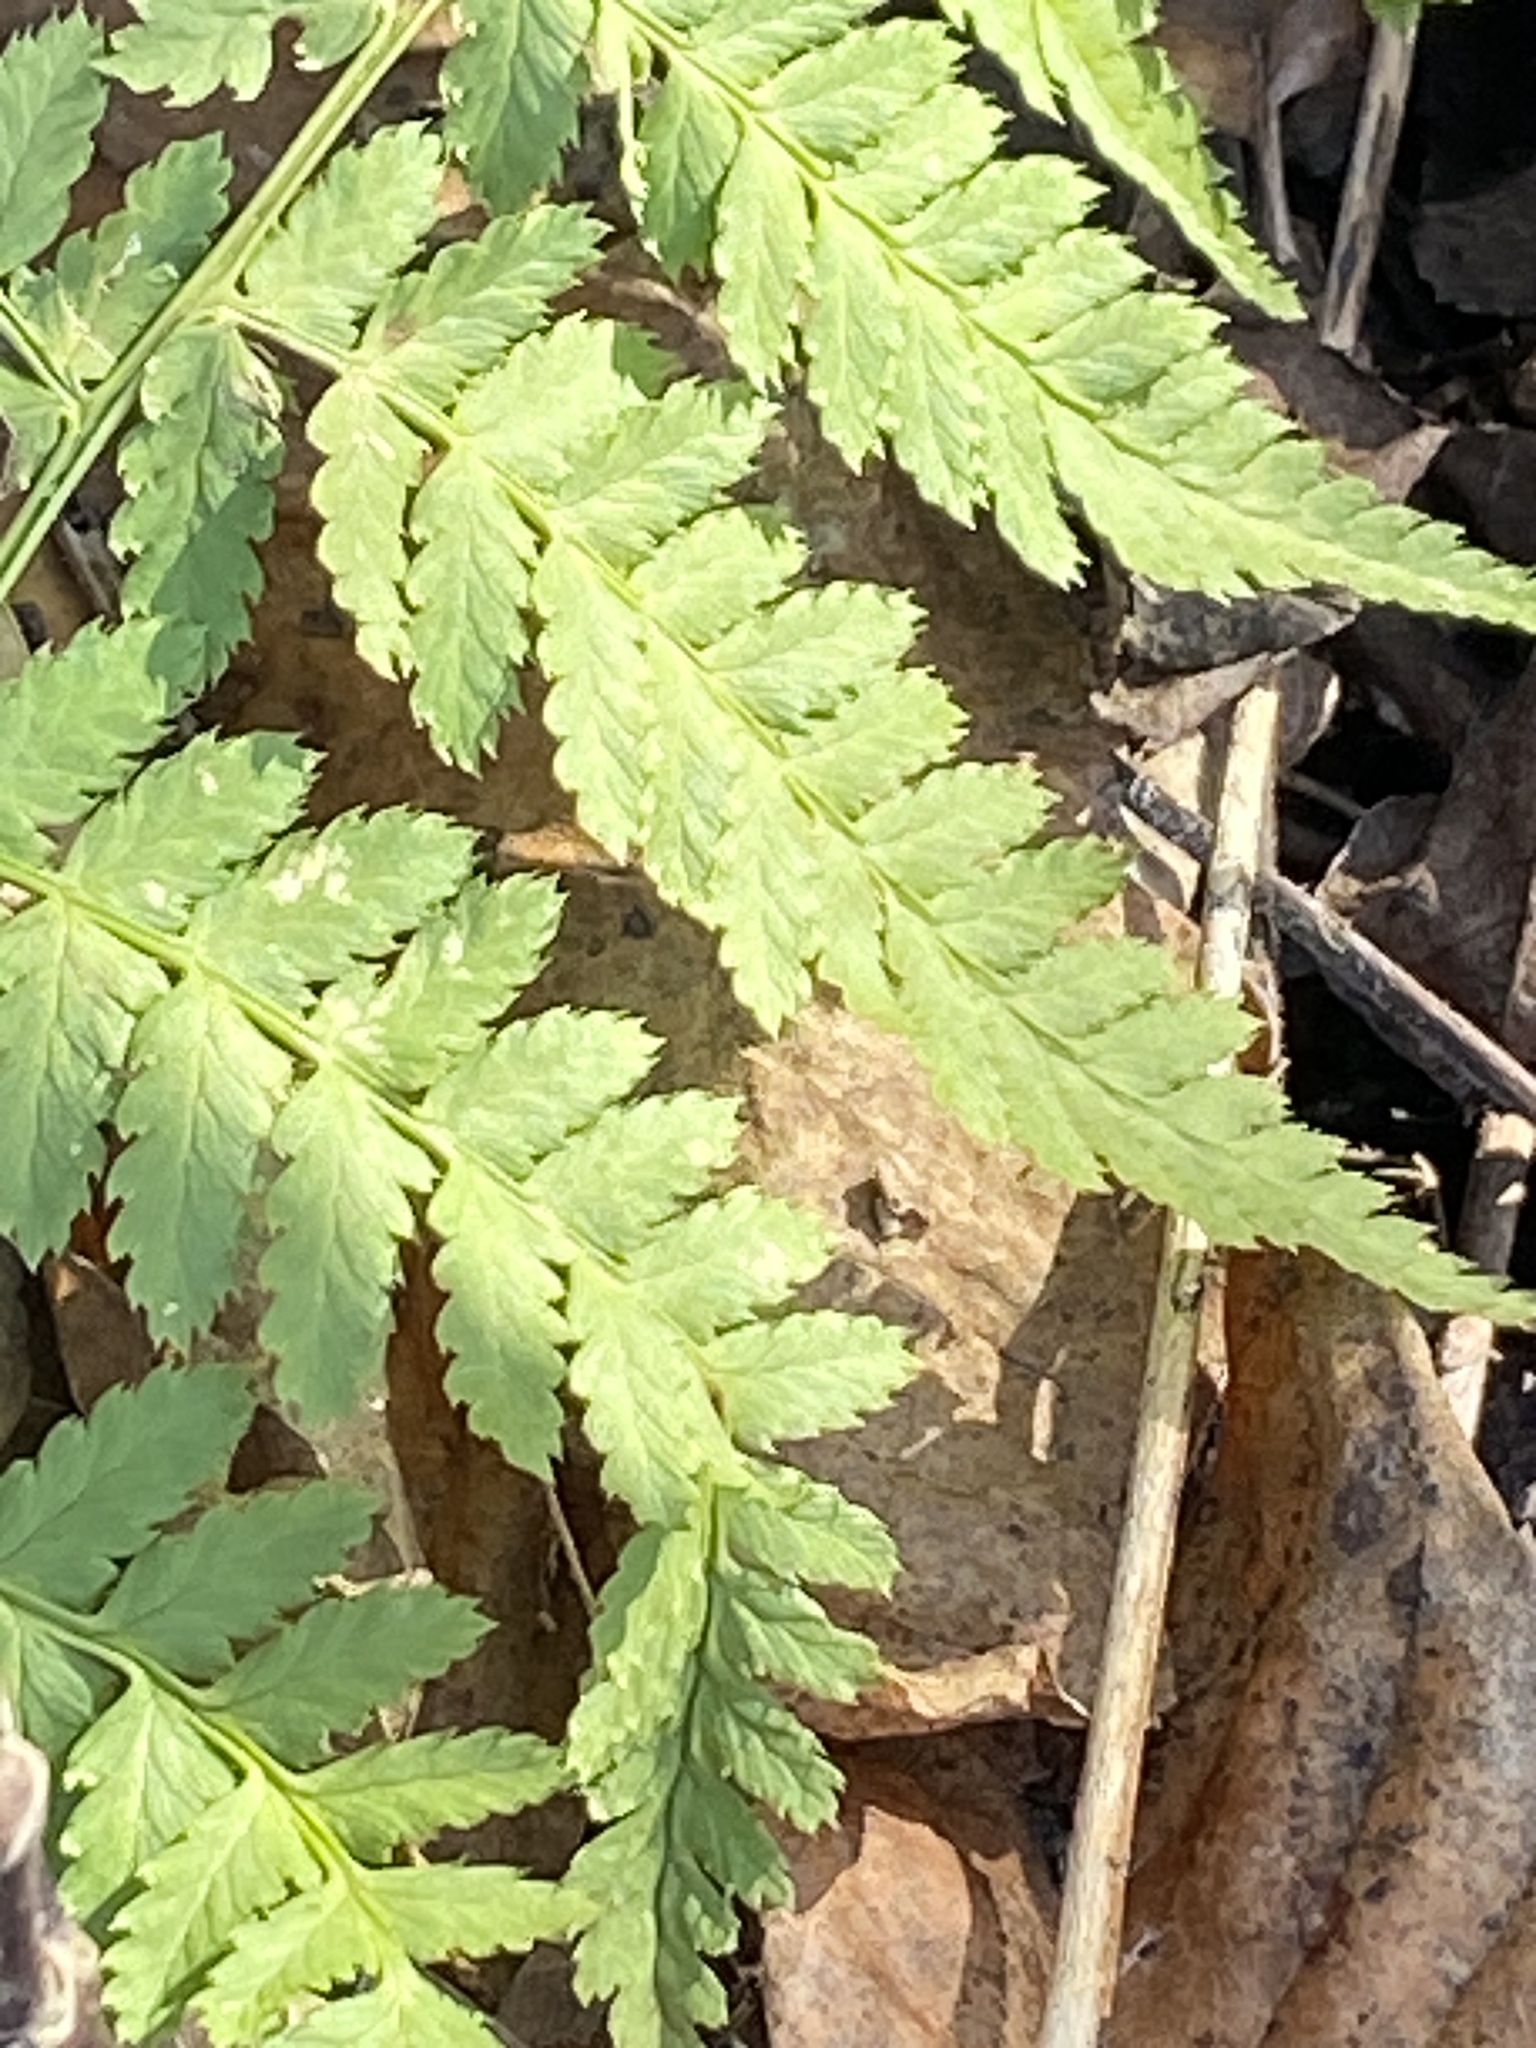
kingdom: Plantae
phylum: Tracheophyta
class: Polypodiopsida
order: Polypodiales
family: Dryopteridaceae
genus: Dryopteris
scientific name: Dryopteris carthusiana
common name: Narrow buckler-fern
